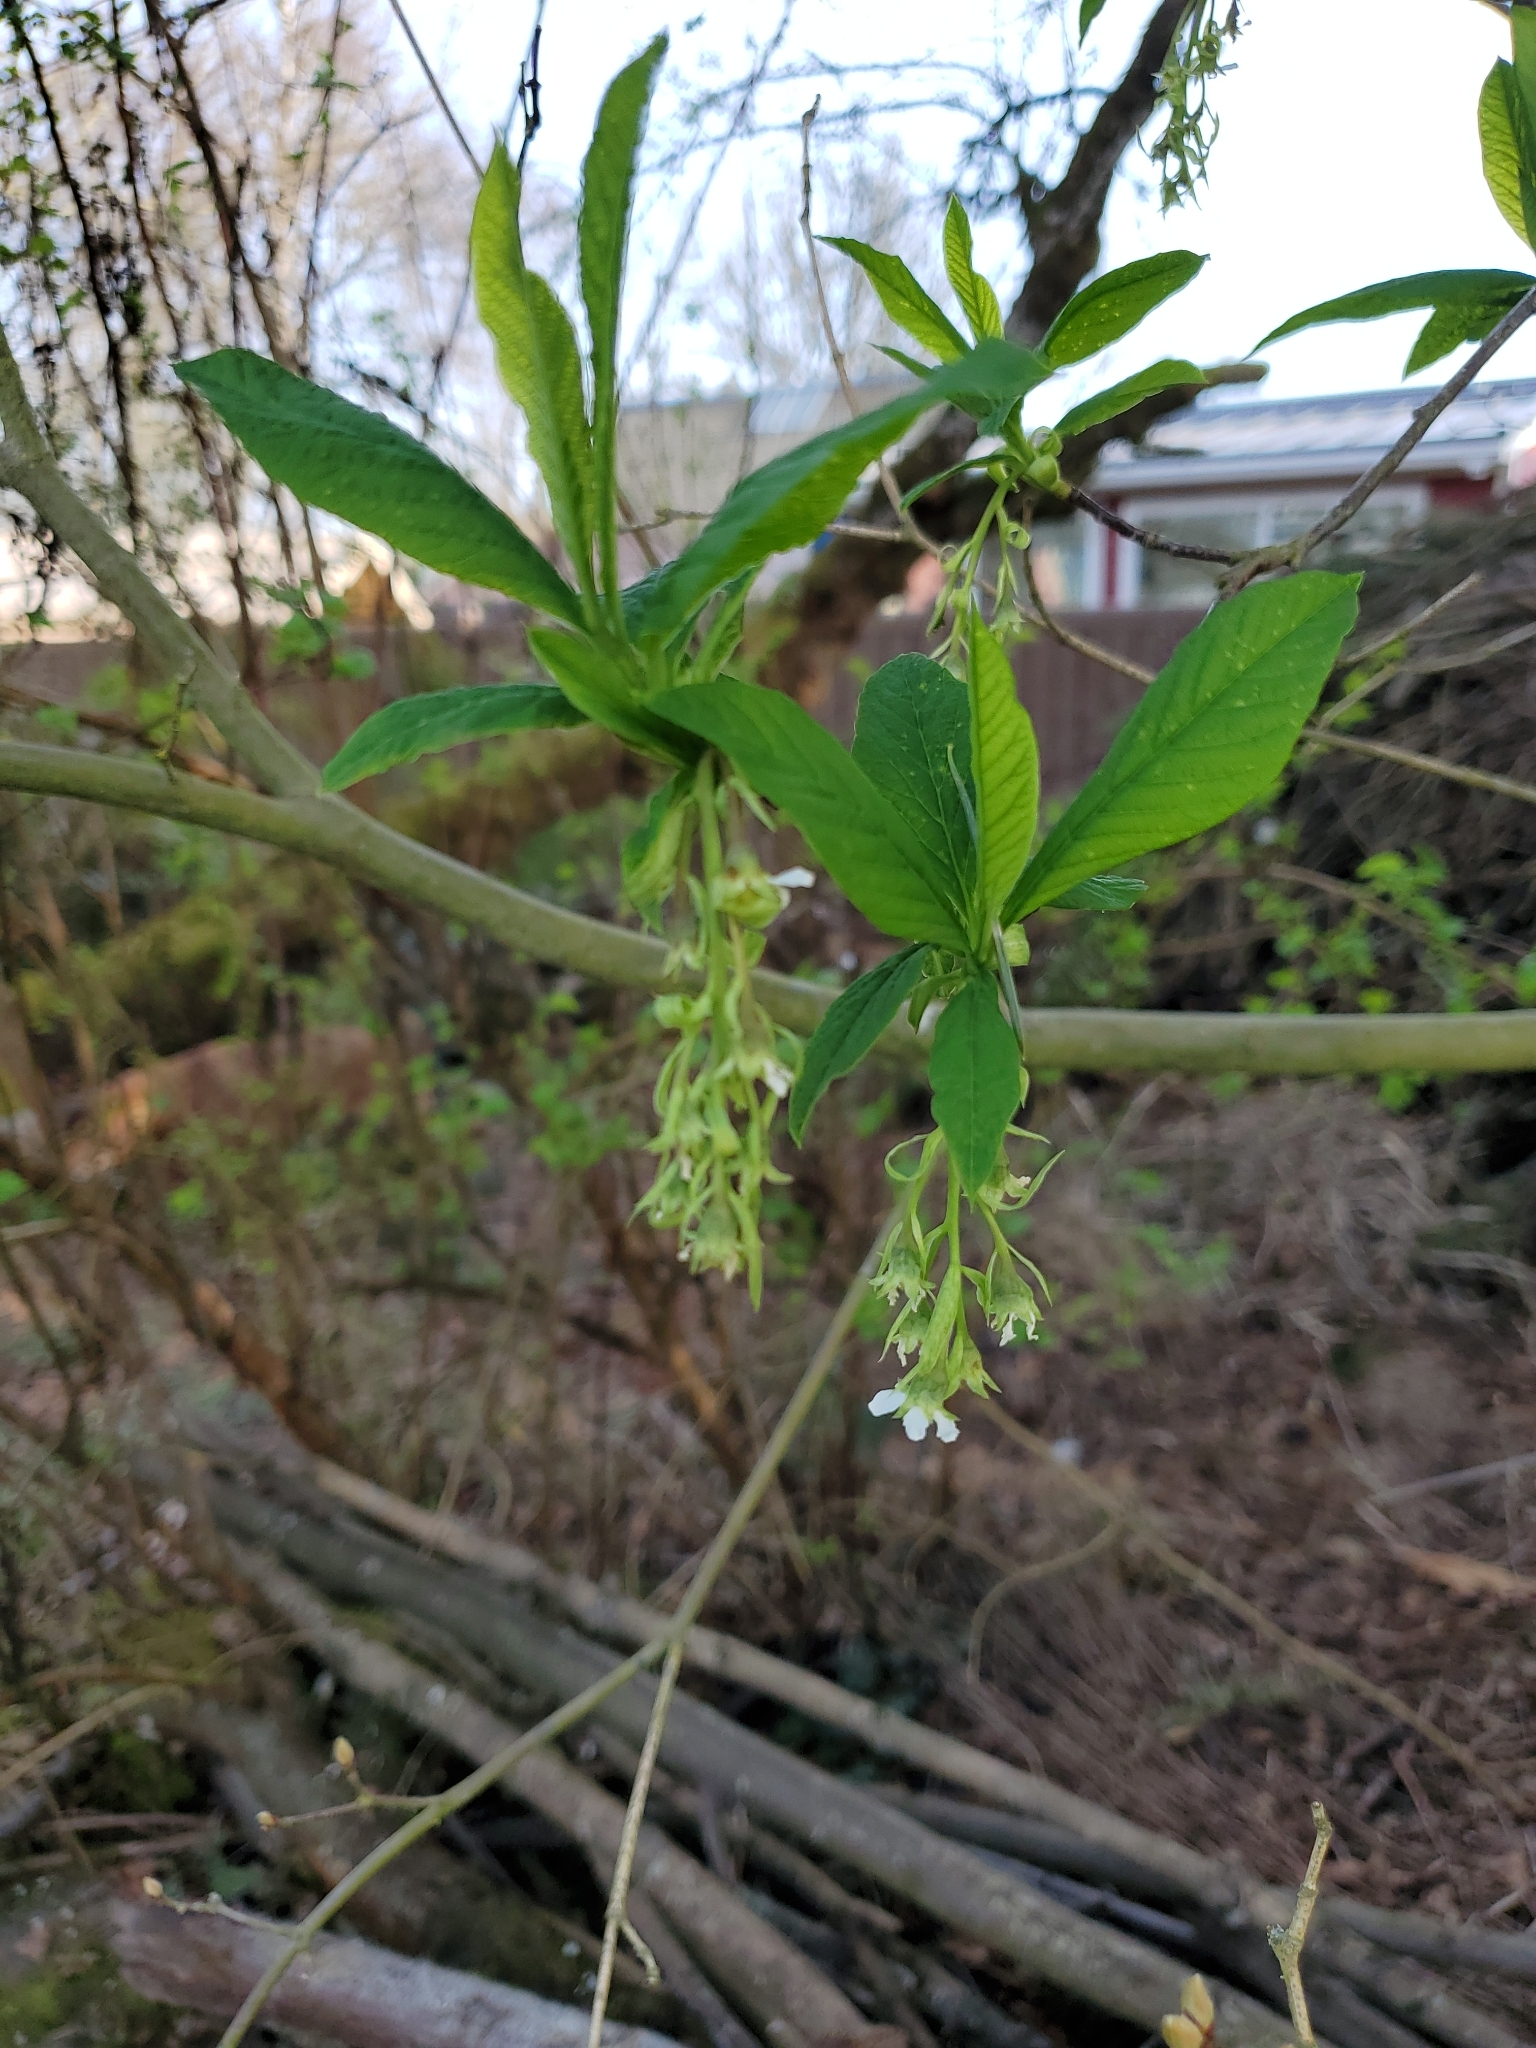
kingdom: Plantae
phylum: Tracheophyta
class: Magnoliopsida
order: Rosales
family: Rosaceae
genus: Oemleria
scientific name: Oemleria cerasiformis
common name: Osoberry
